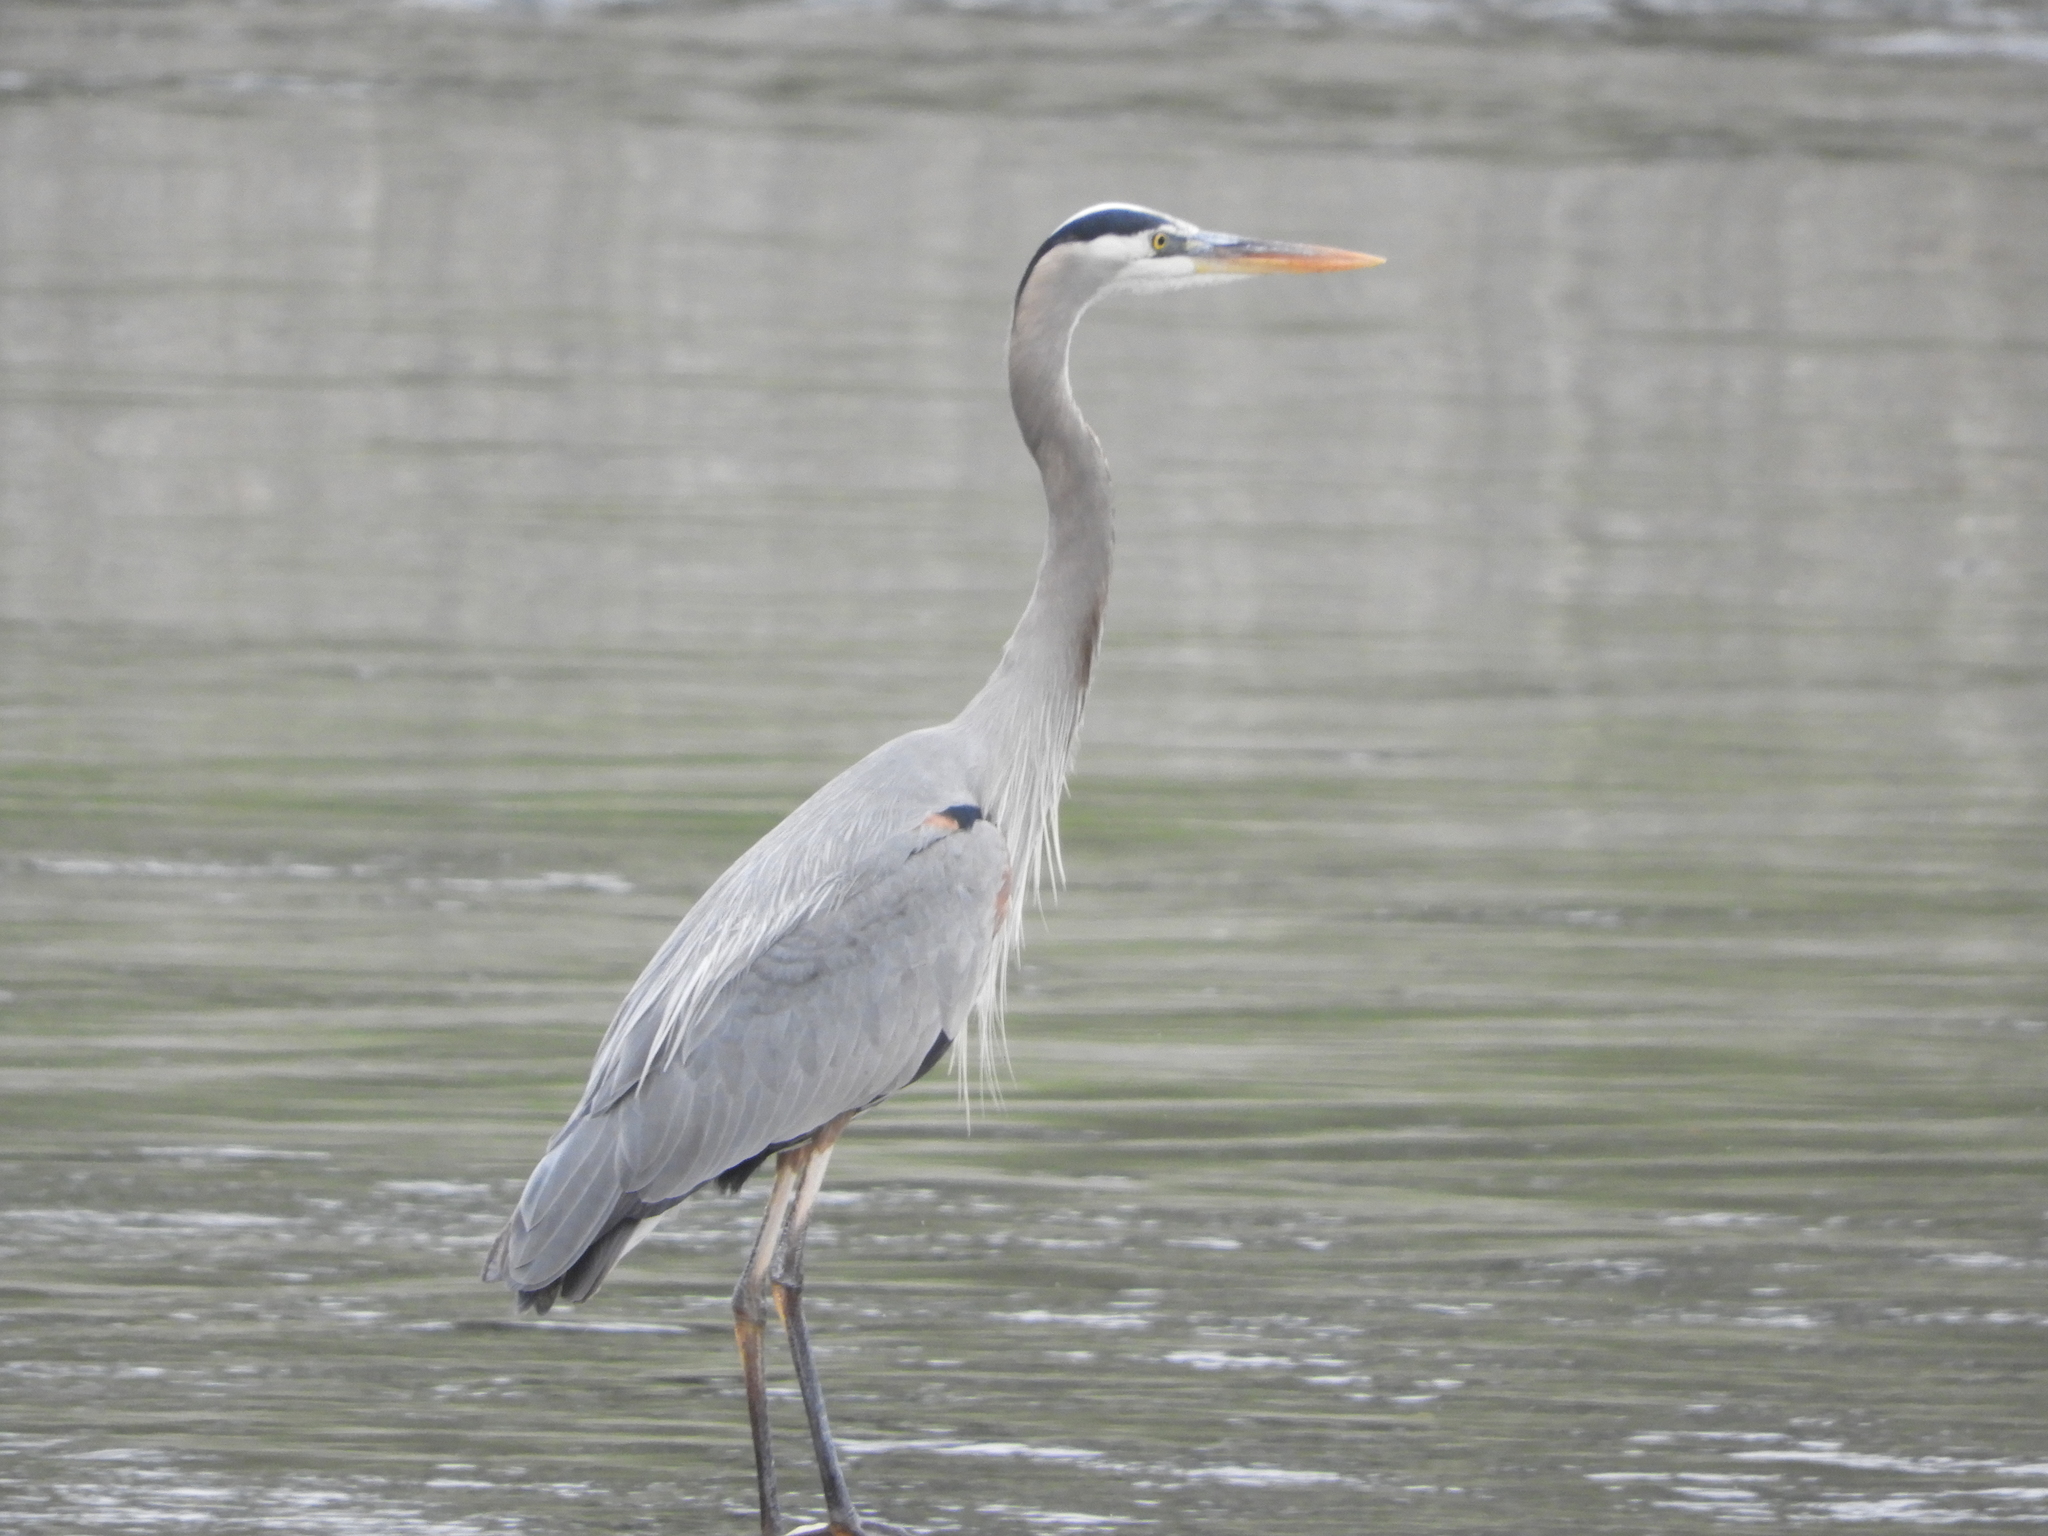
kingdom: Animalia
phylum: Chordata
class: Aves
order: Pelecaniformes
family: Ardeidae
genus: Ardea
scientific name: Ardea herodias
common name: Great blue heron
